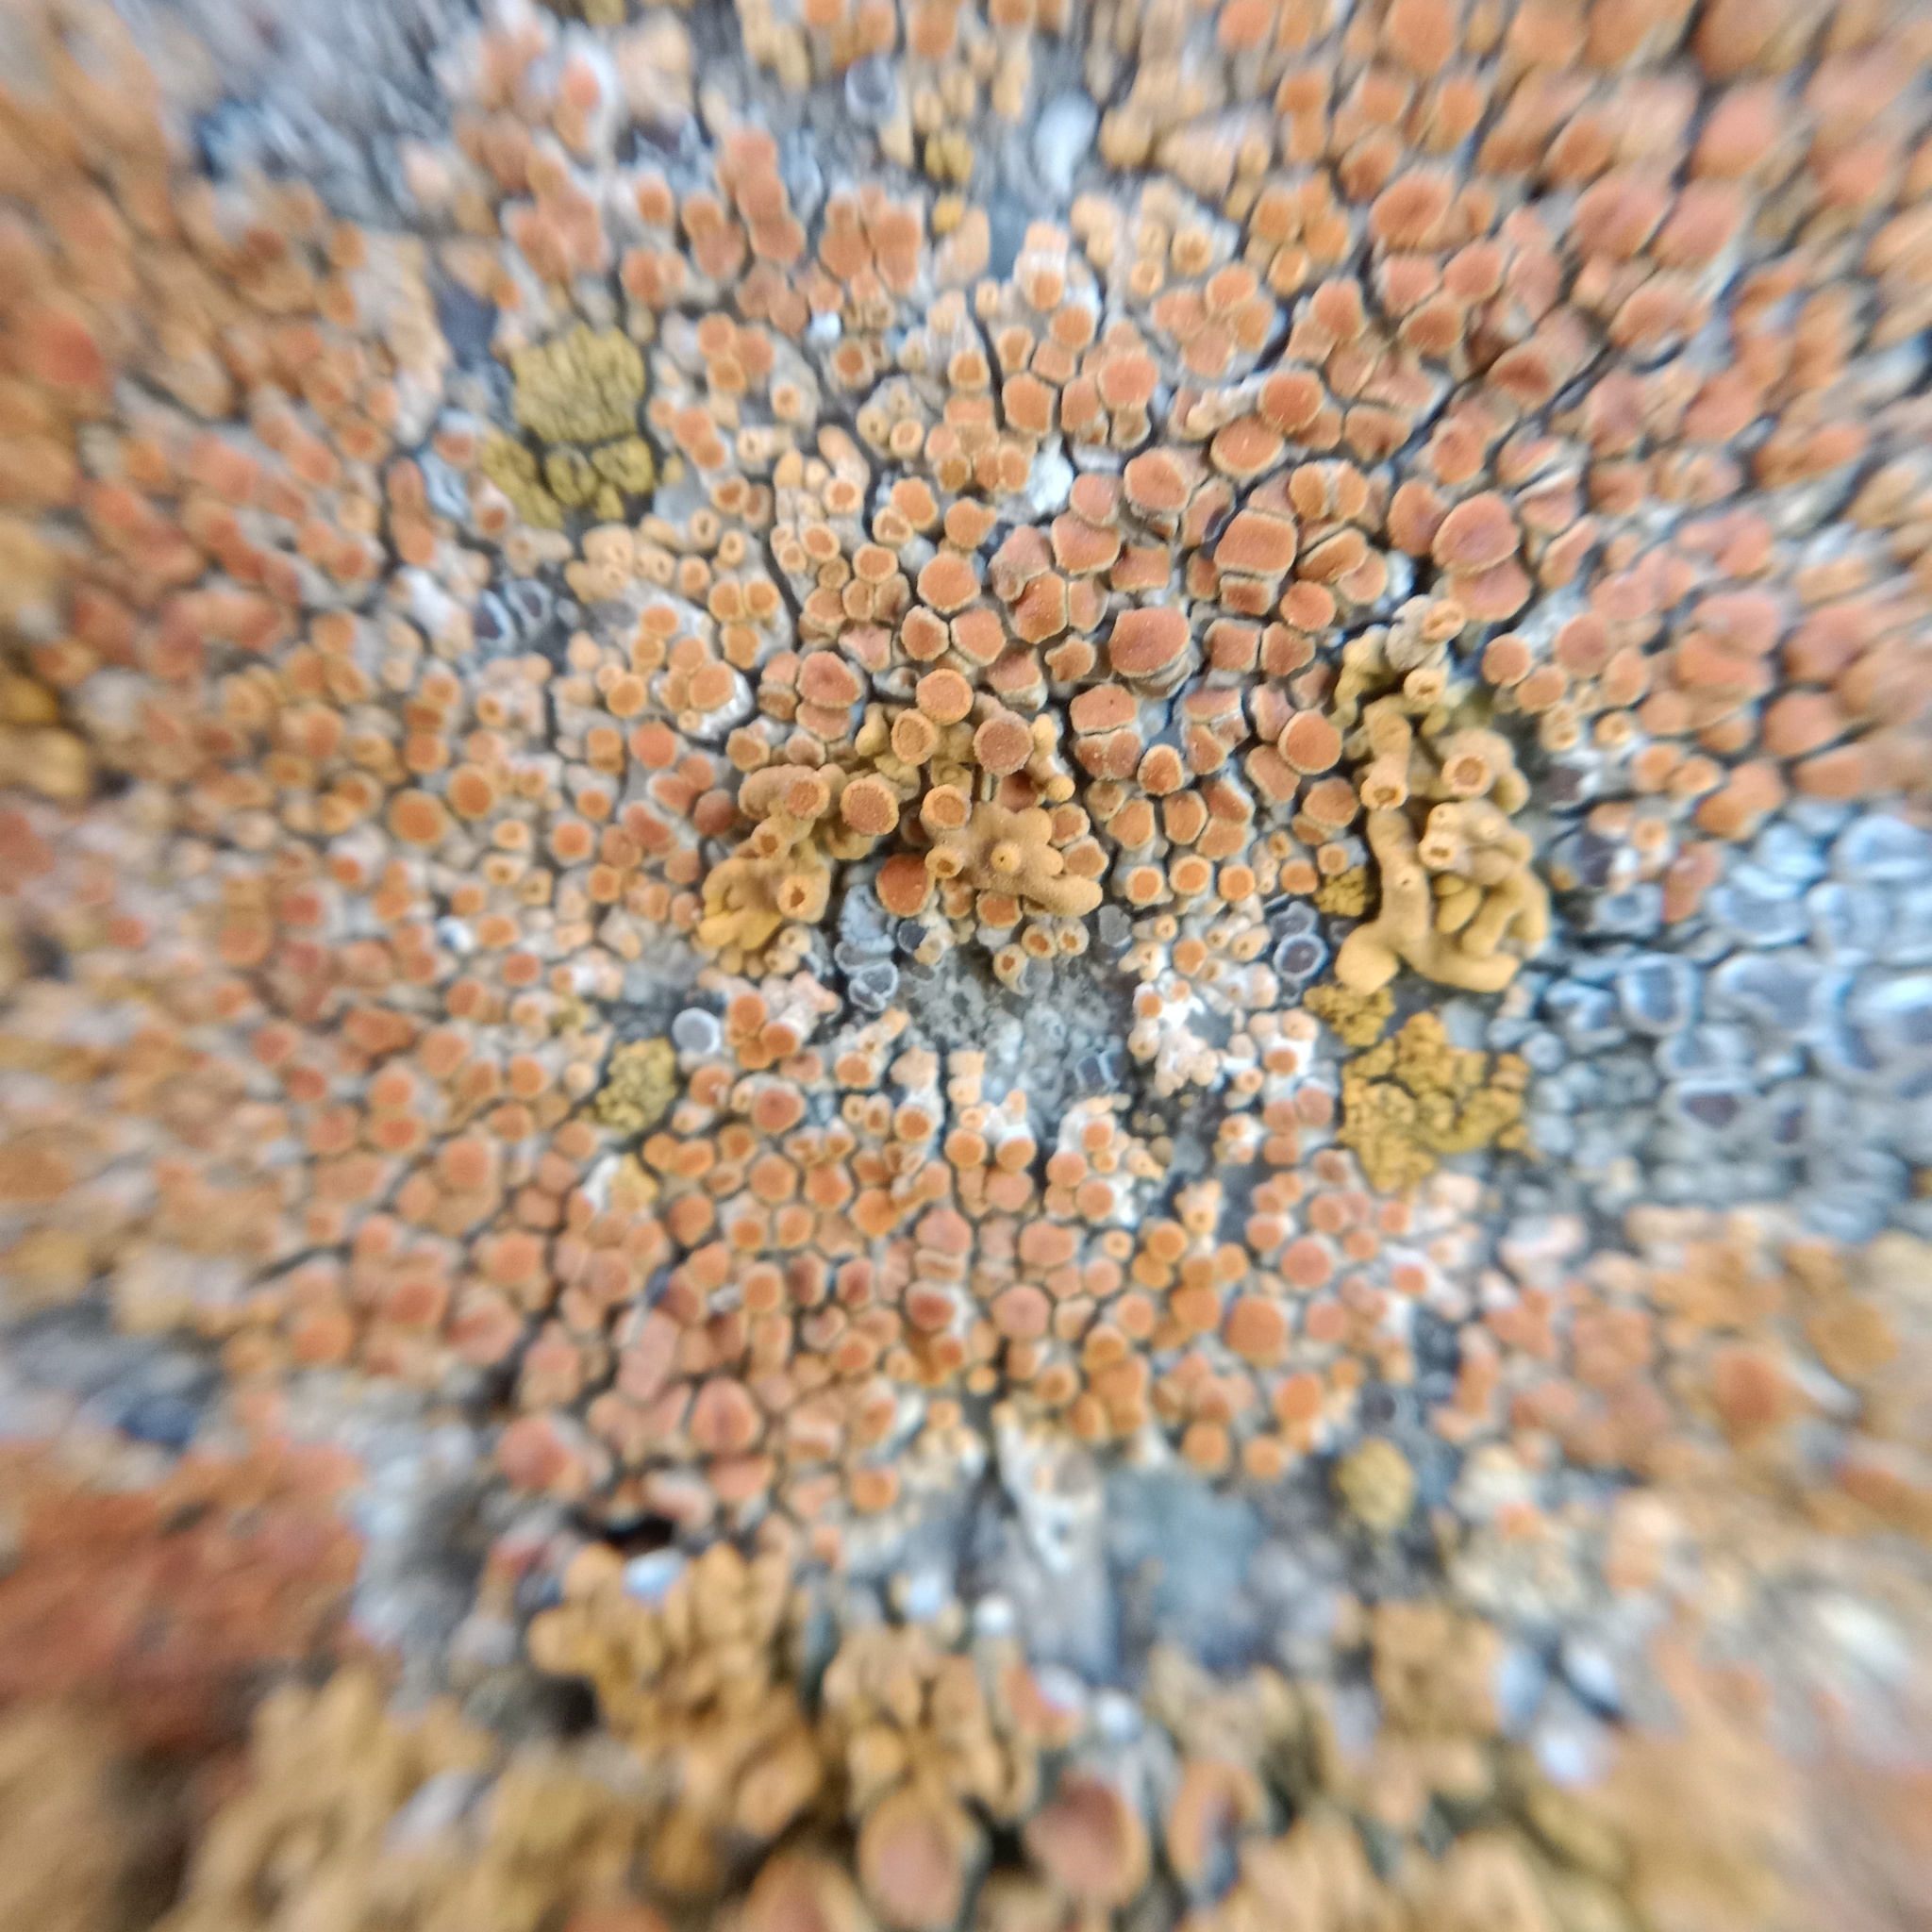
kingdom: Fungi
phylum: Ascomycota
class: Lecanoromycetes
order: Teloschistales
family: Teloschistaceae
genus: Calogaya
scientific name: Calogaya pusilla
